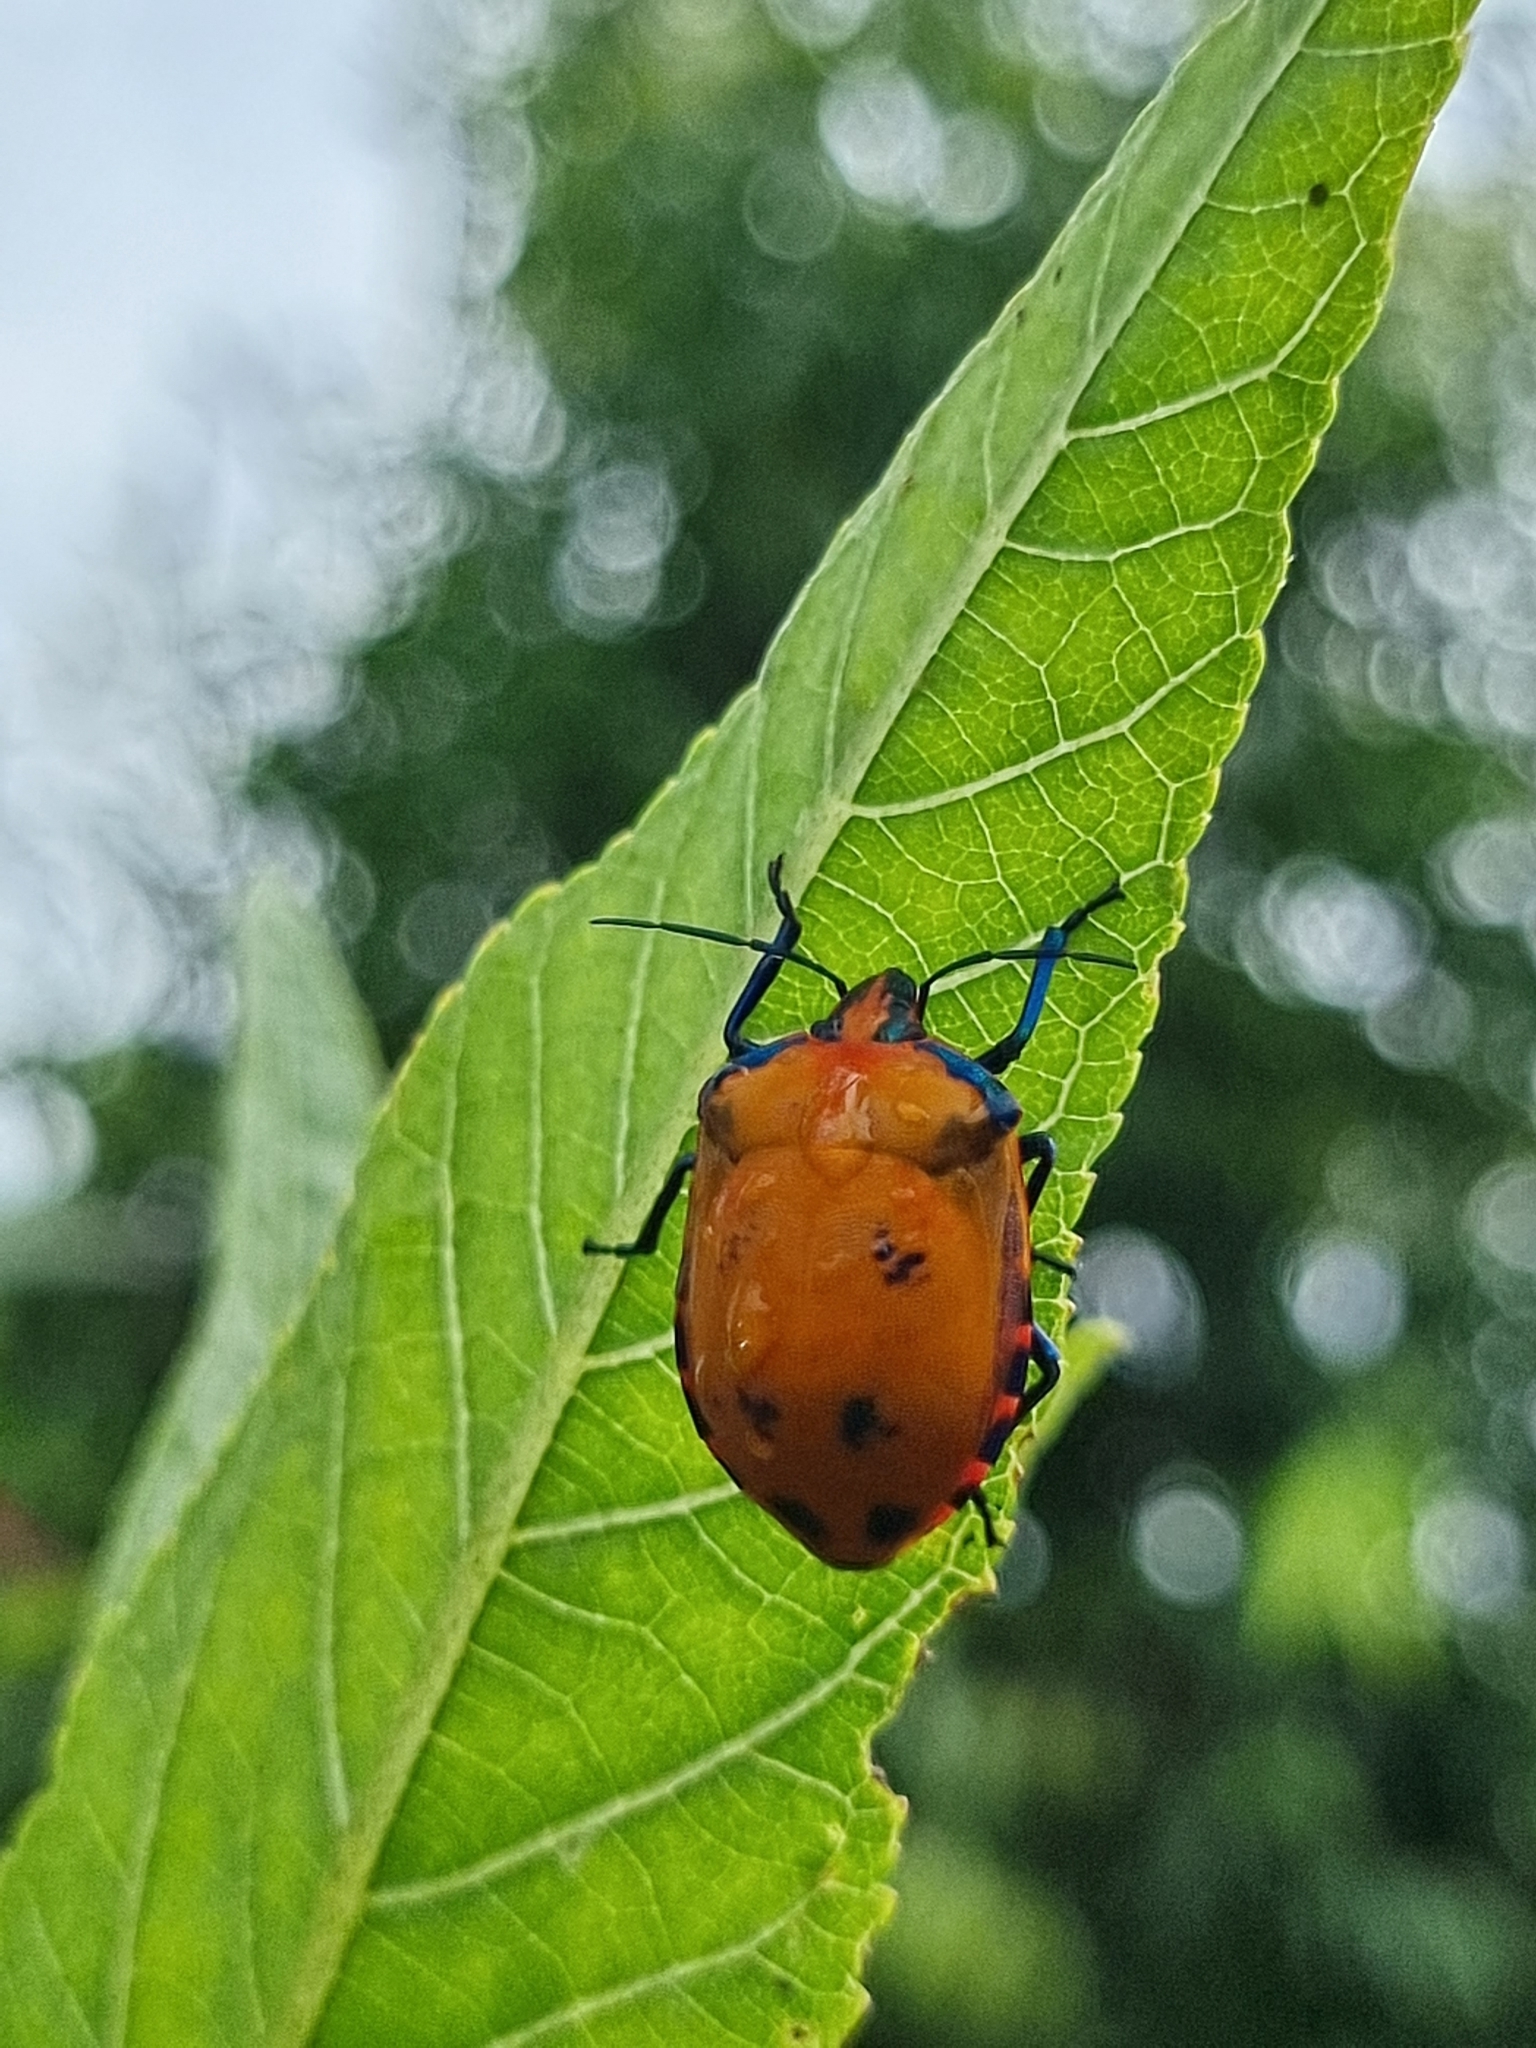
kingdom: Animalia
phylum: Arthropoda
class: Insecta
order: Hemiptera
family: Scutelleridae
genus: Tectocoris
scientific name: Tectocoris diophthalmus
